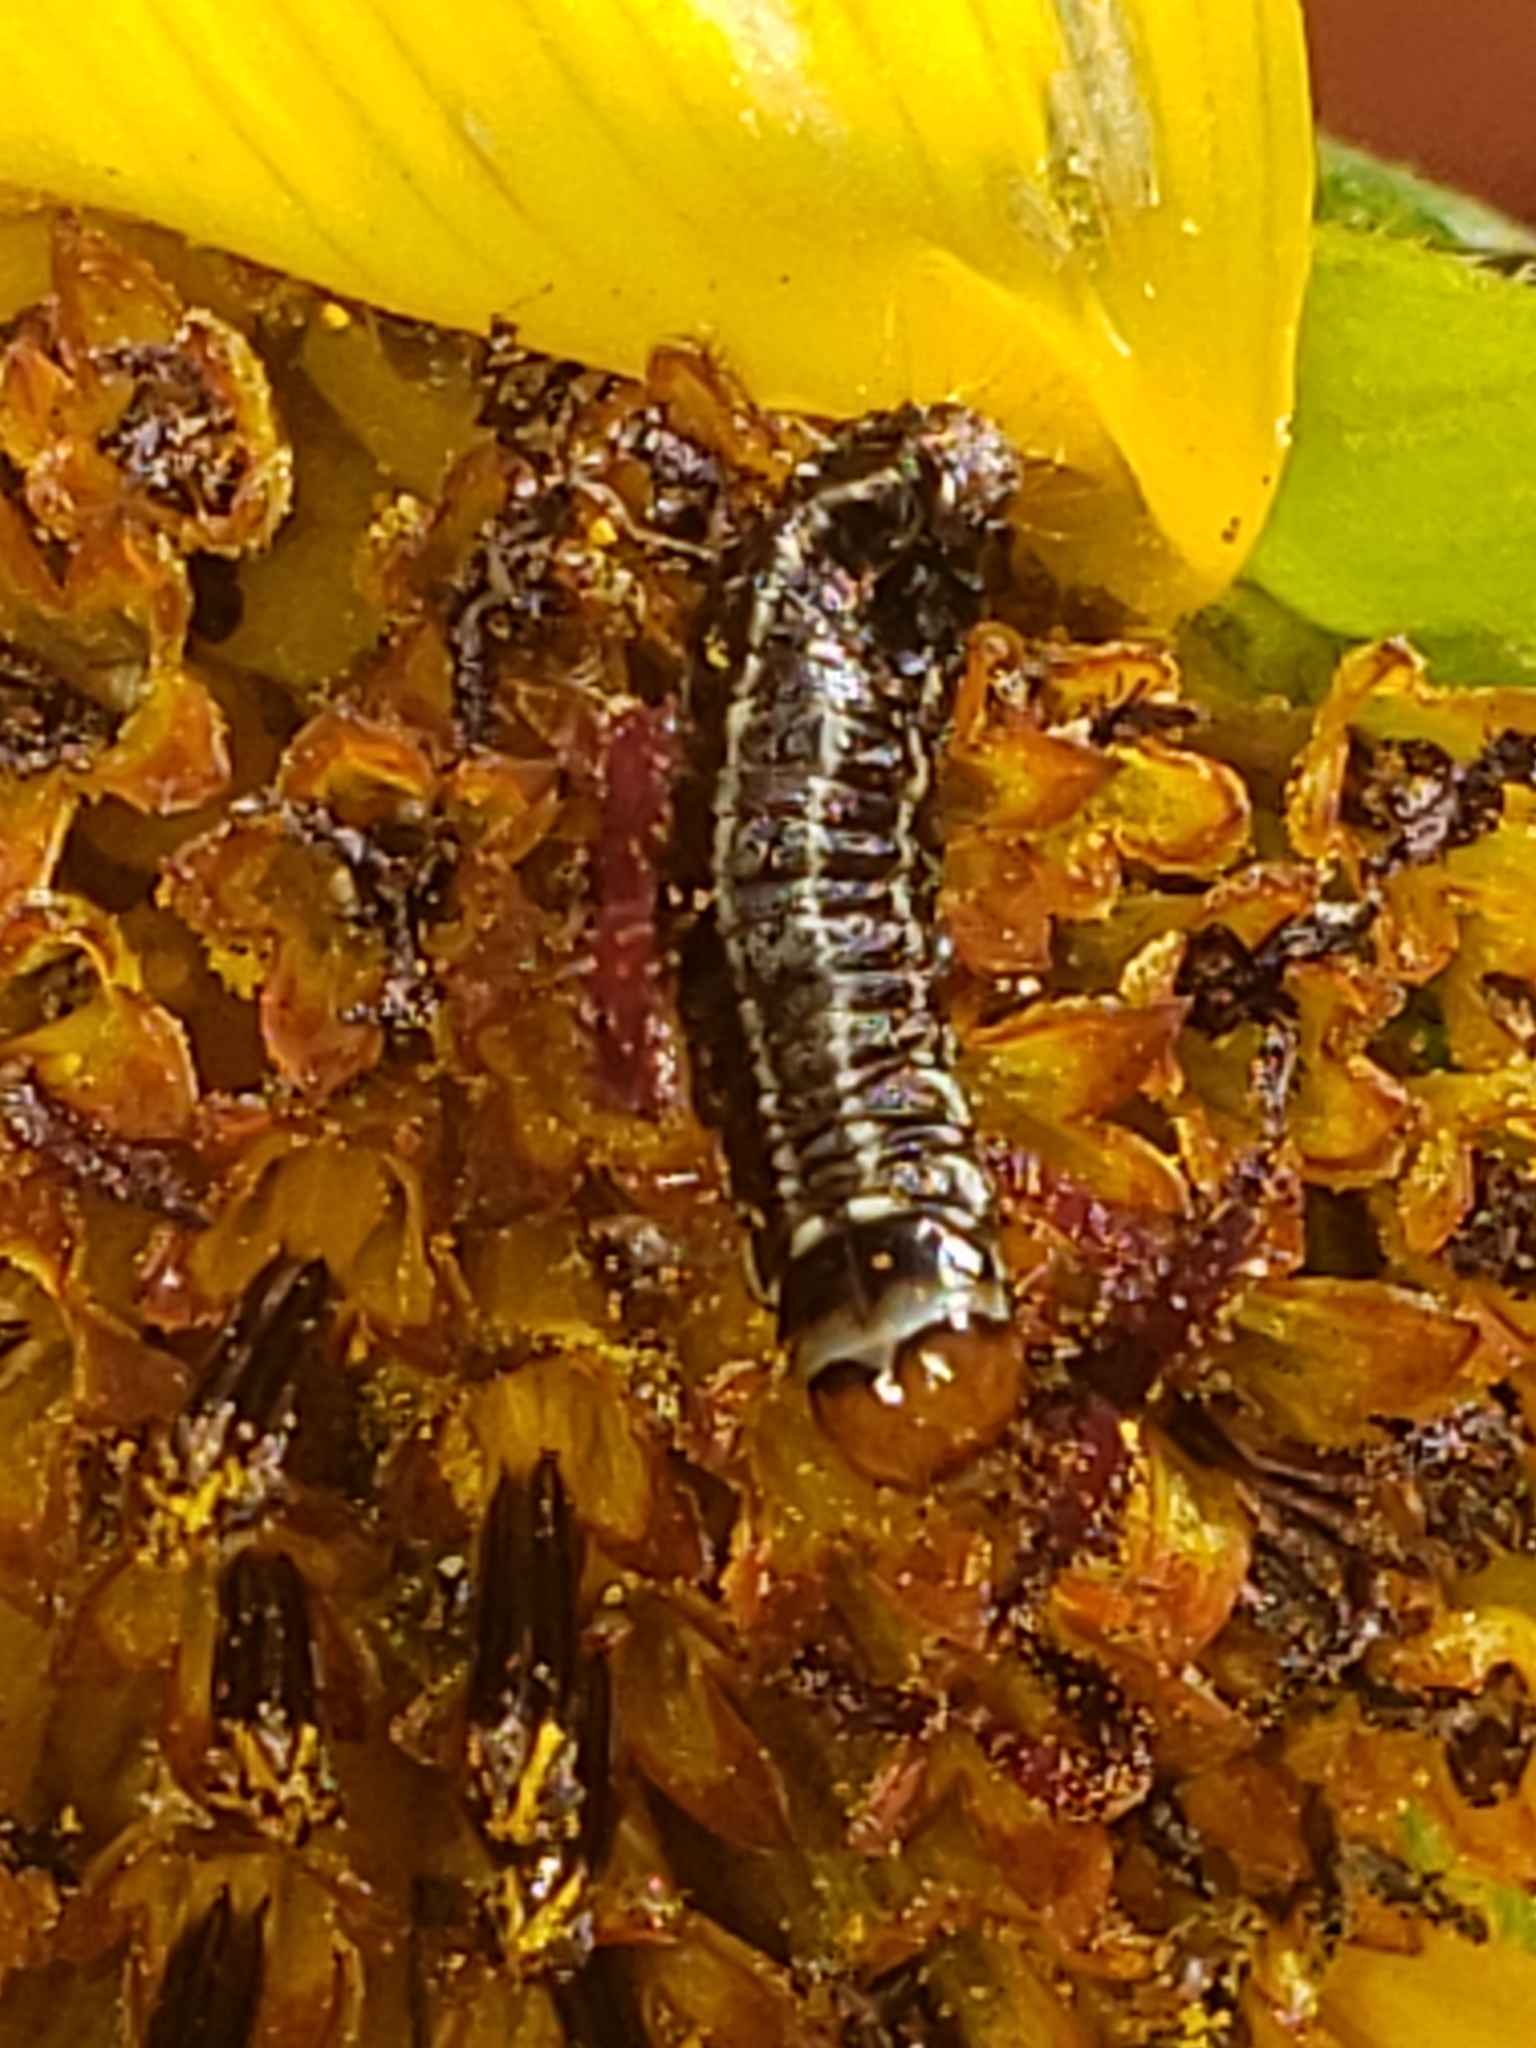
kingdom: Animalia
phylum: Arthropoda
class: Insecta
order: Lepidoptera
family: Pyralidae
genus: Homoeosoma
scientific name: Homoeosoma electella
